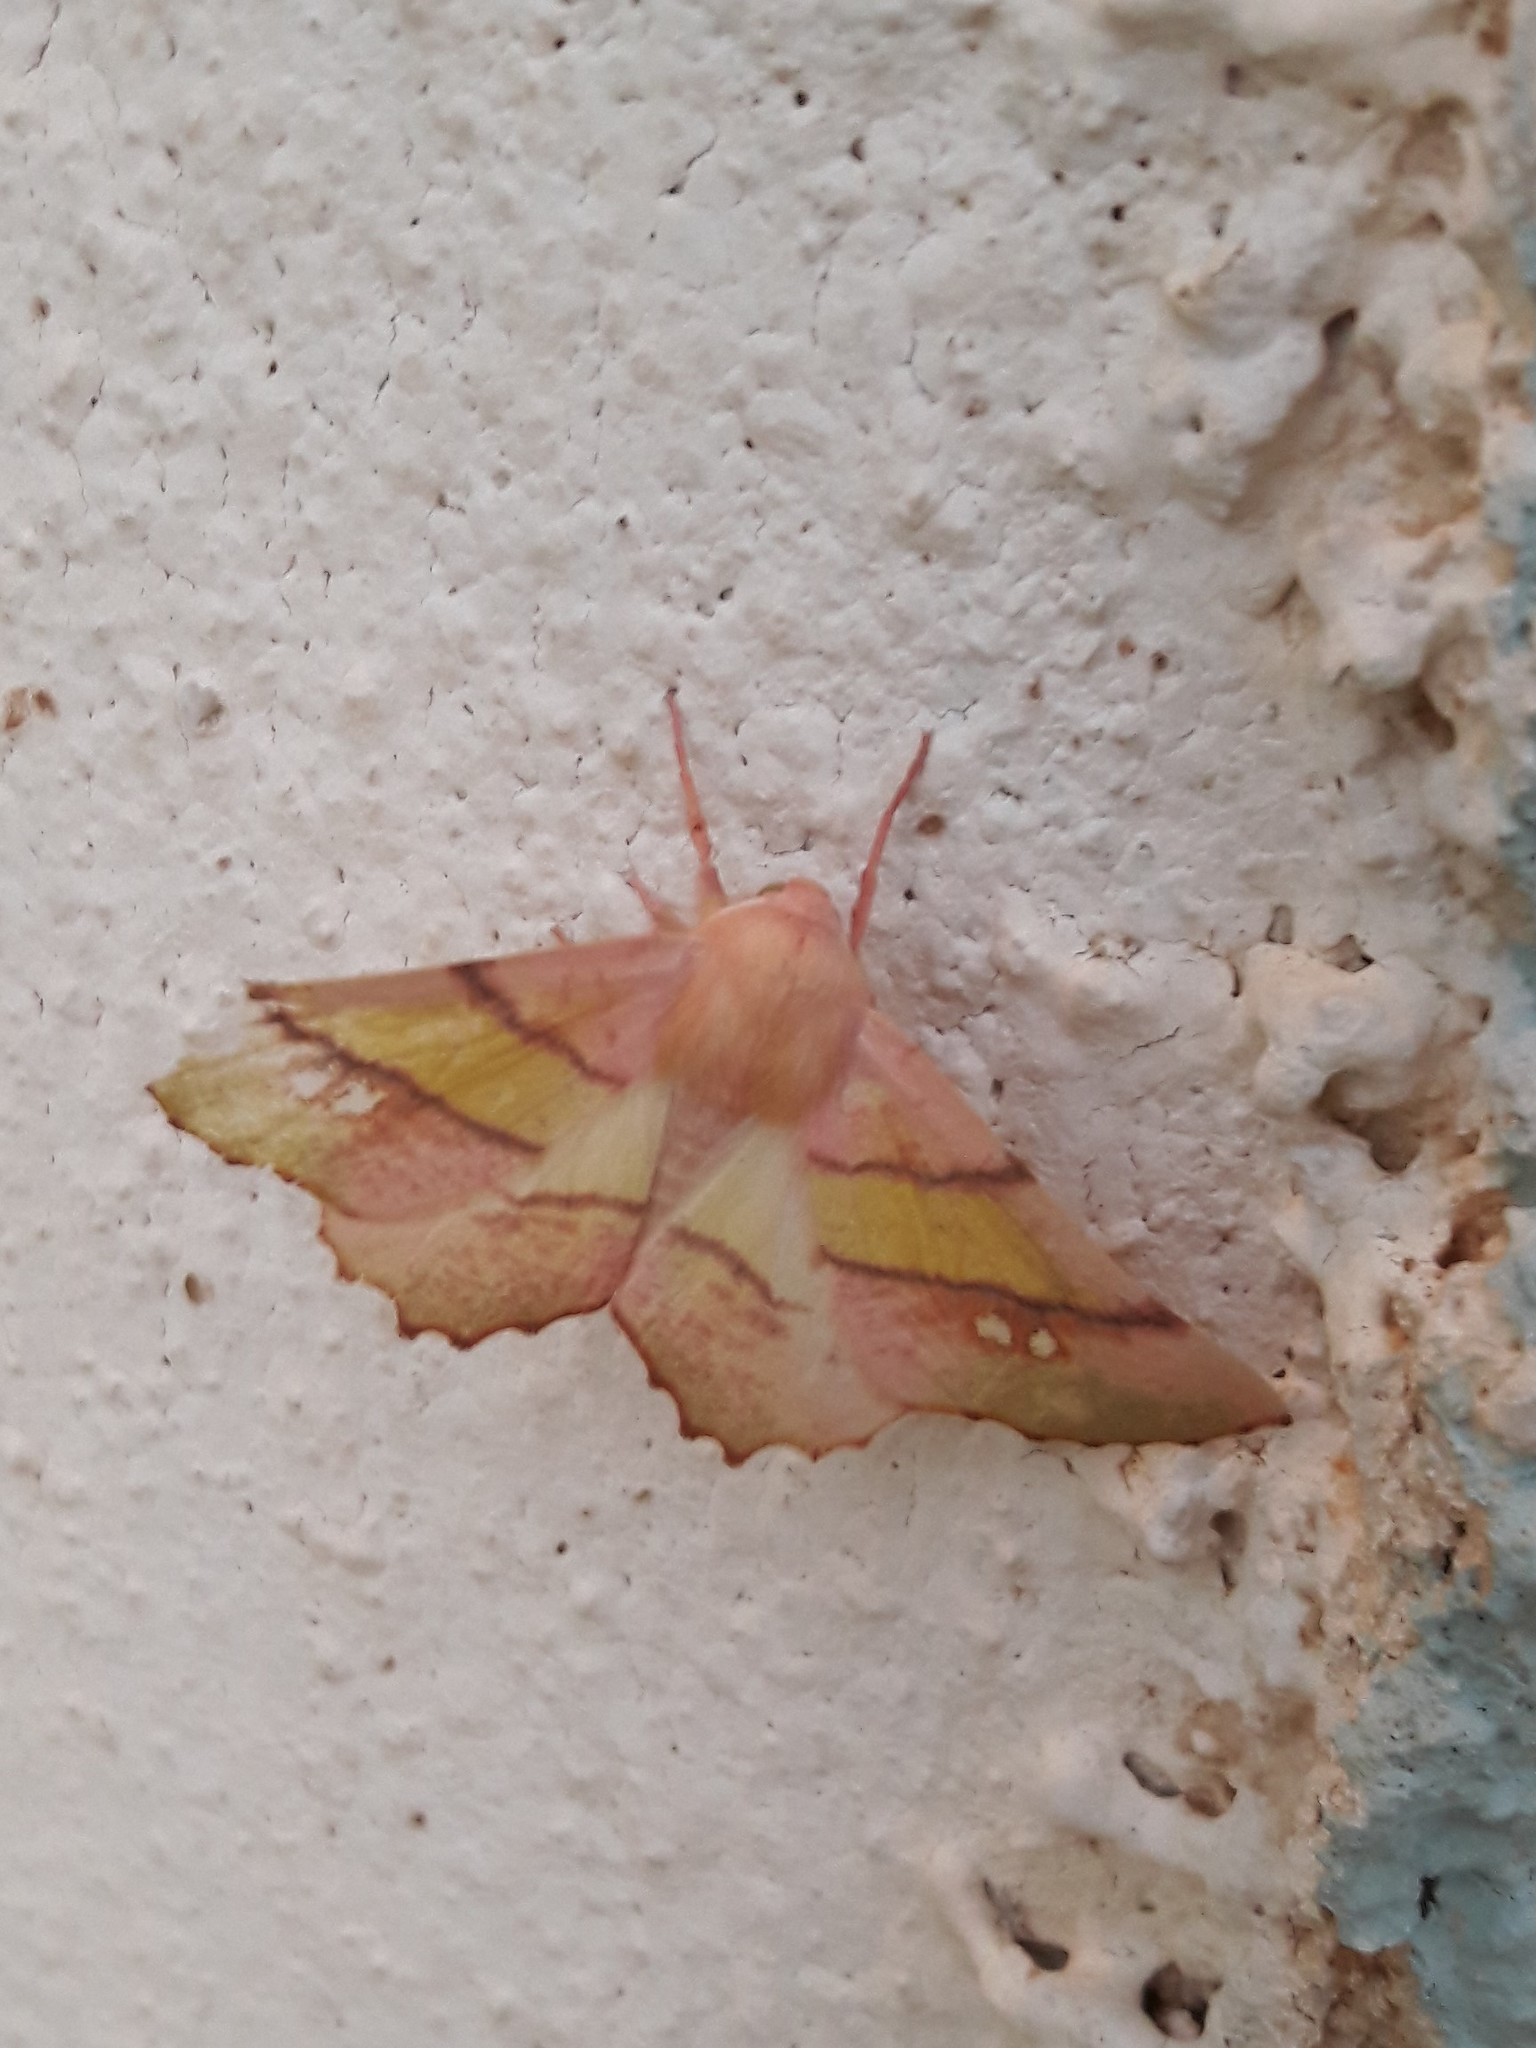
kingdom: Animalia
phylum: Arthropoda
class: Insecta
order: Lepidoptera
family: Geometridae
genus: Eumera
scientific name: Eumera regina
